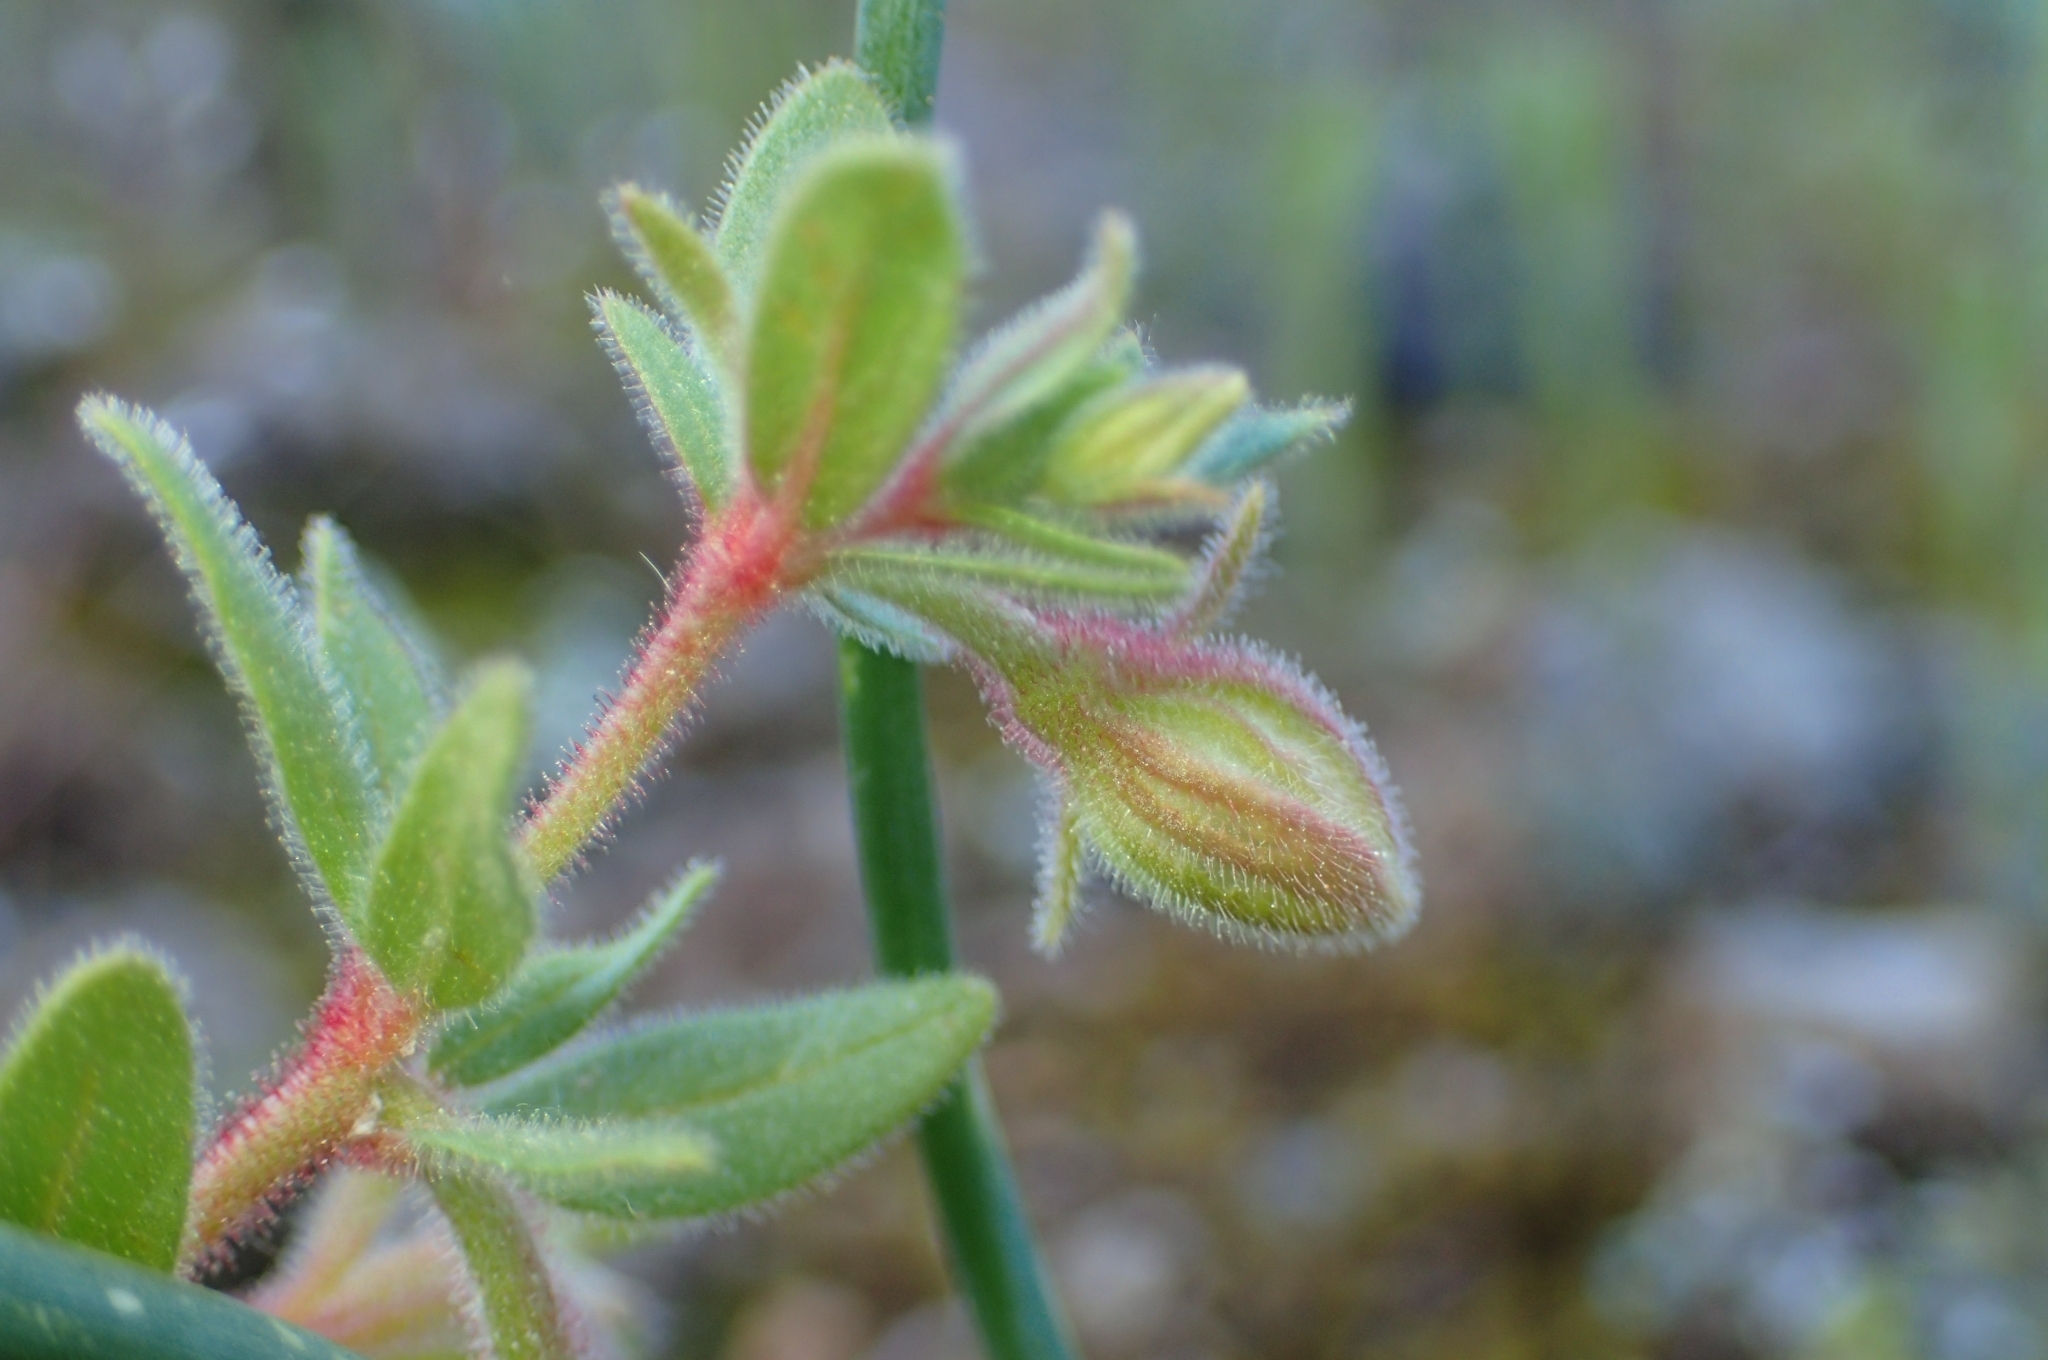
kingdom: Plantae
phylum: Tracheophyta
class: Magnoliopsida
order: Malvales
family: Cistaceae
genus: Helianthemum
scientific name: Helianthemum sanguineum
